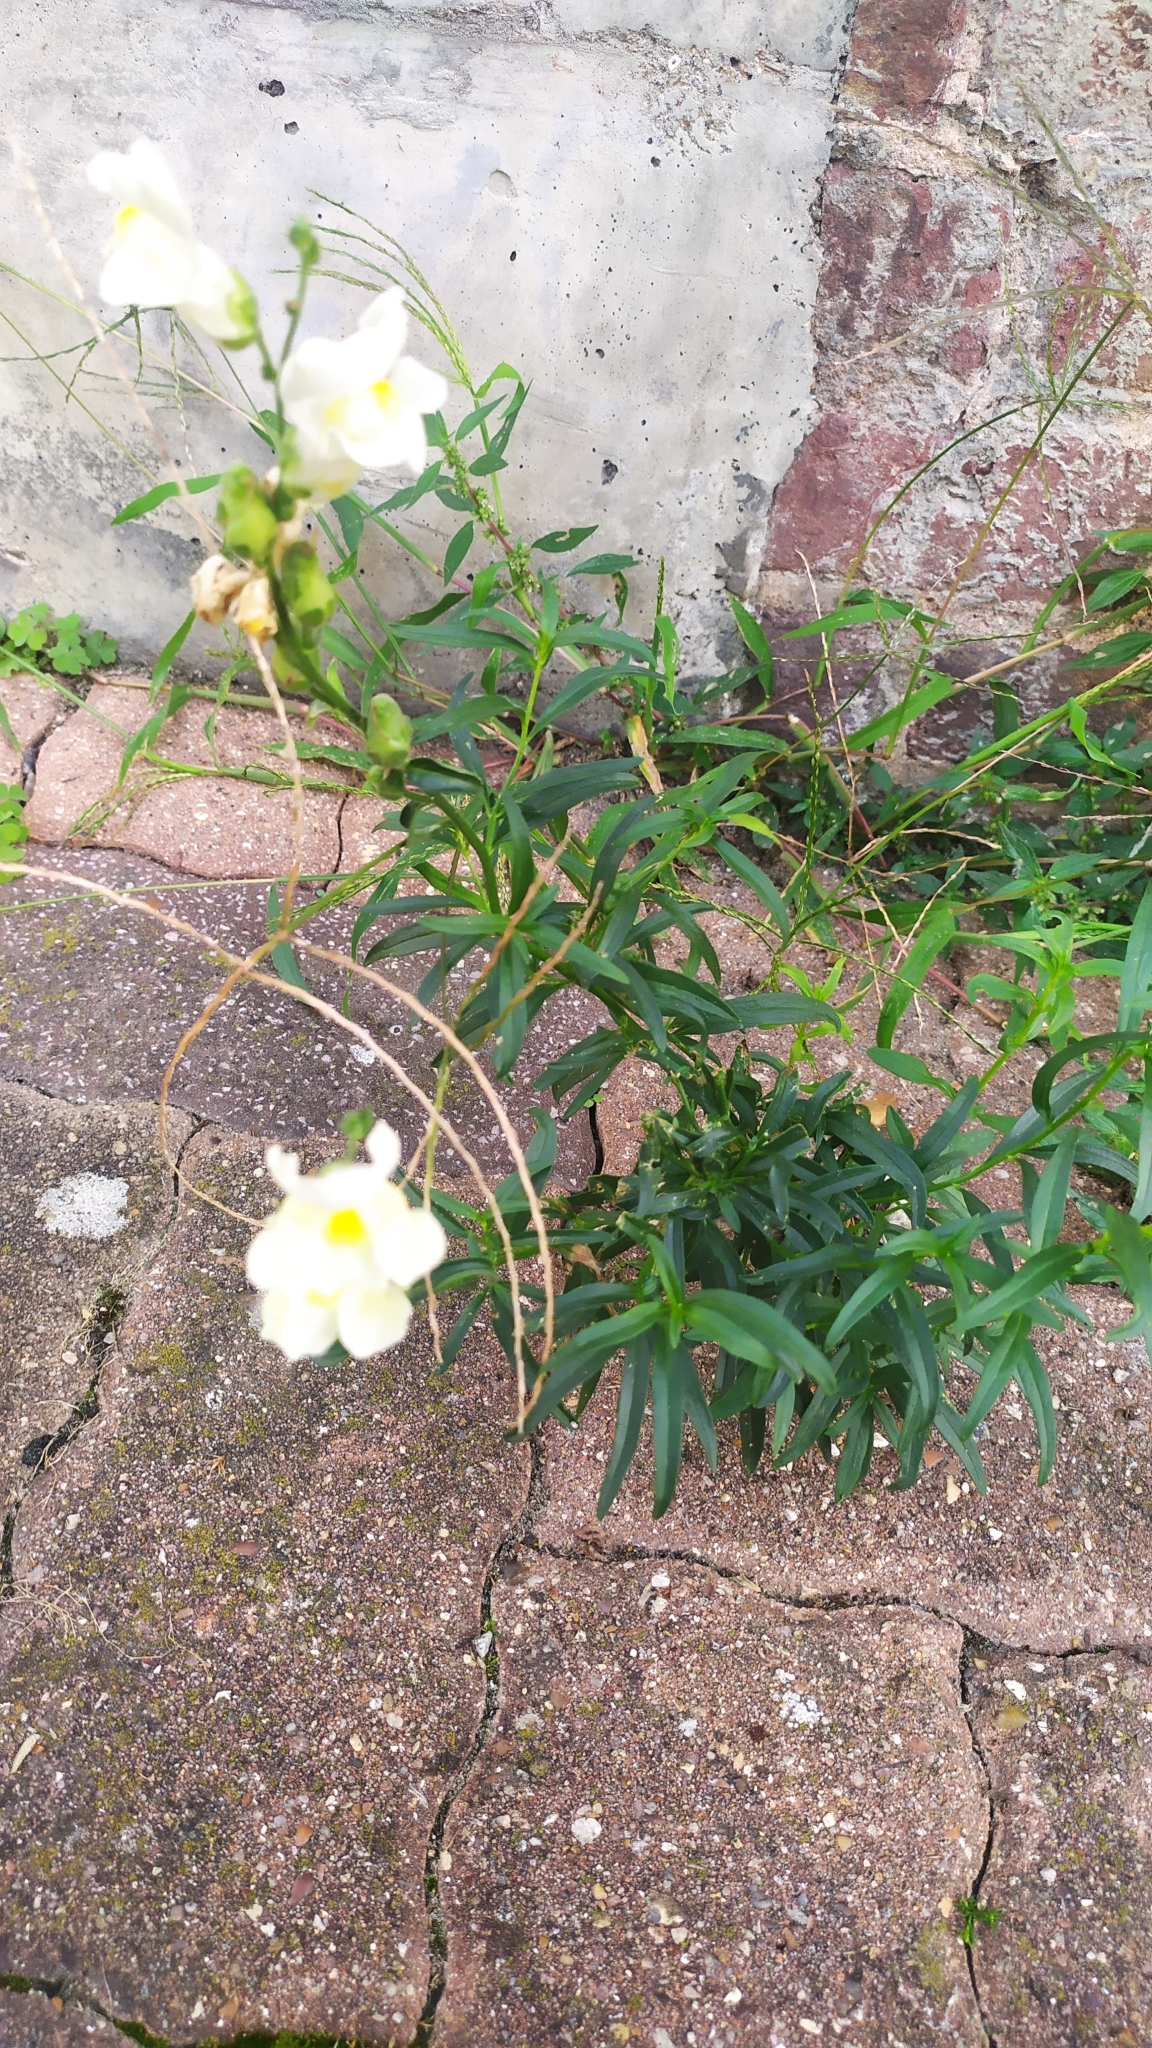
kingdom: Plantae
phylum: Tracheophyta
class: Magnoliopsida
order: Lamiales
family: Plantaginaceae
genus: Antirrhinum
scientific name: Antirrhinum majus
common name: Snapdragon
